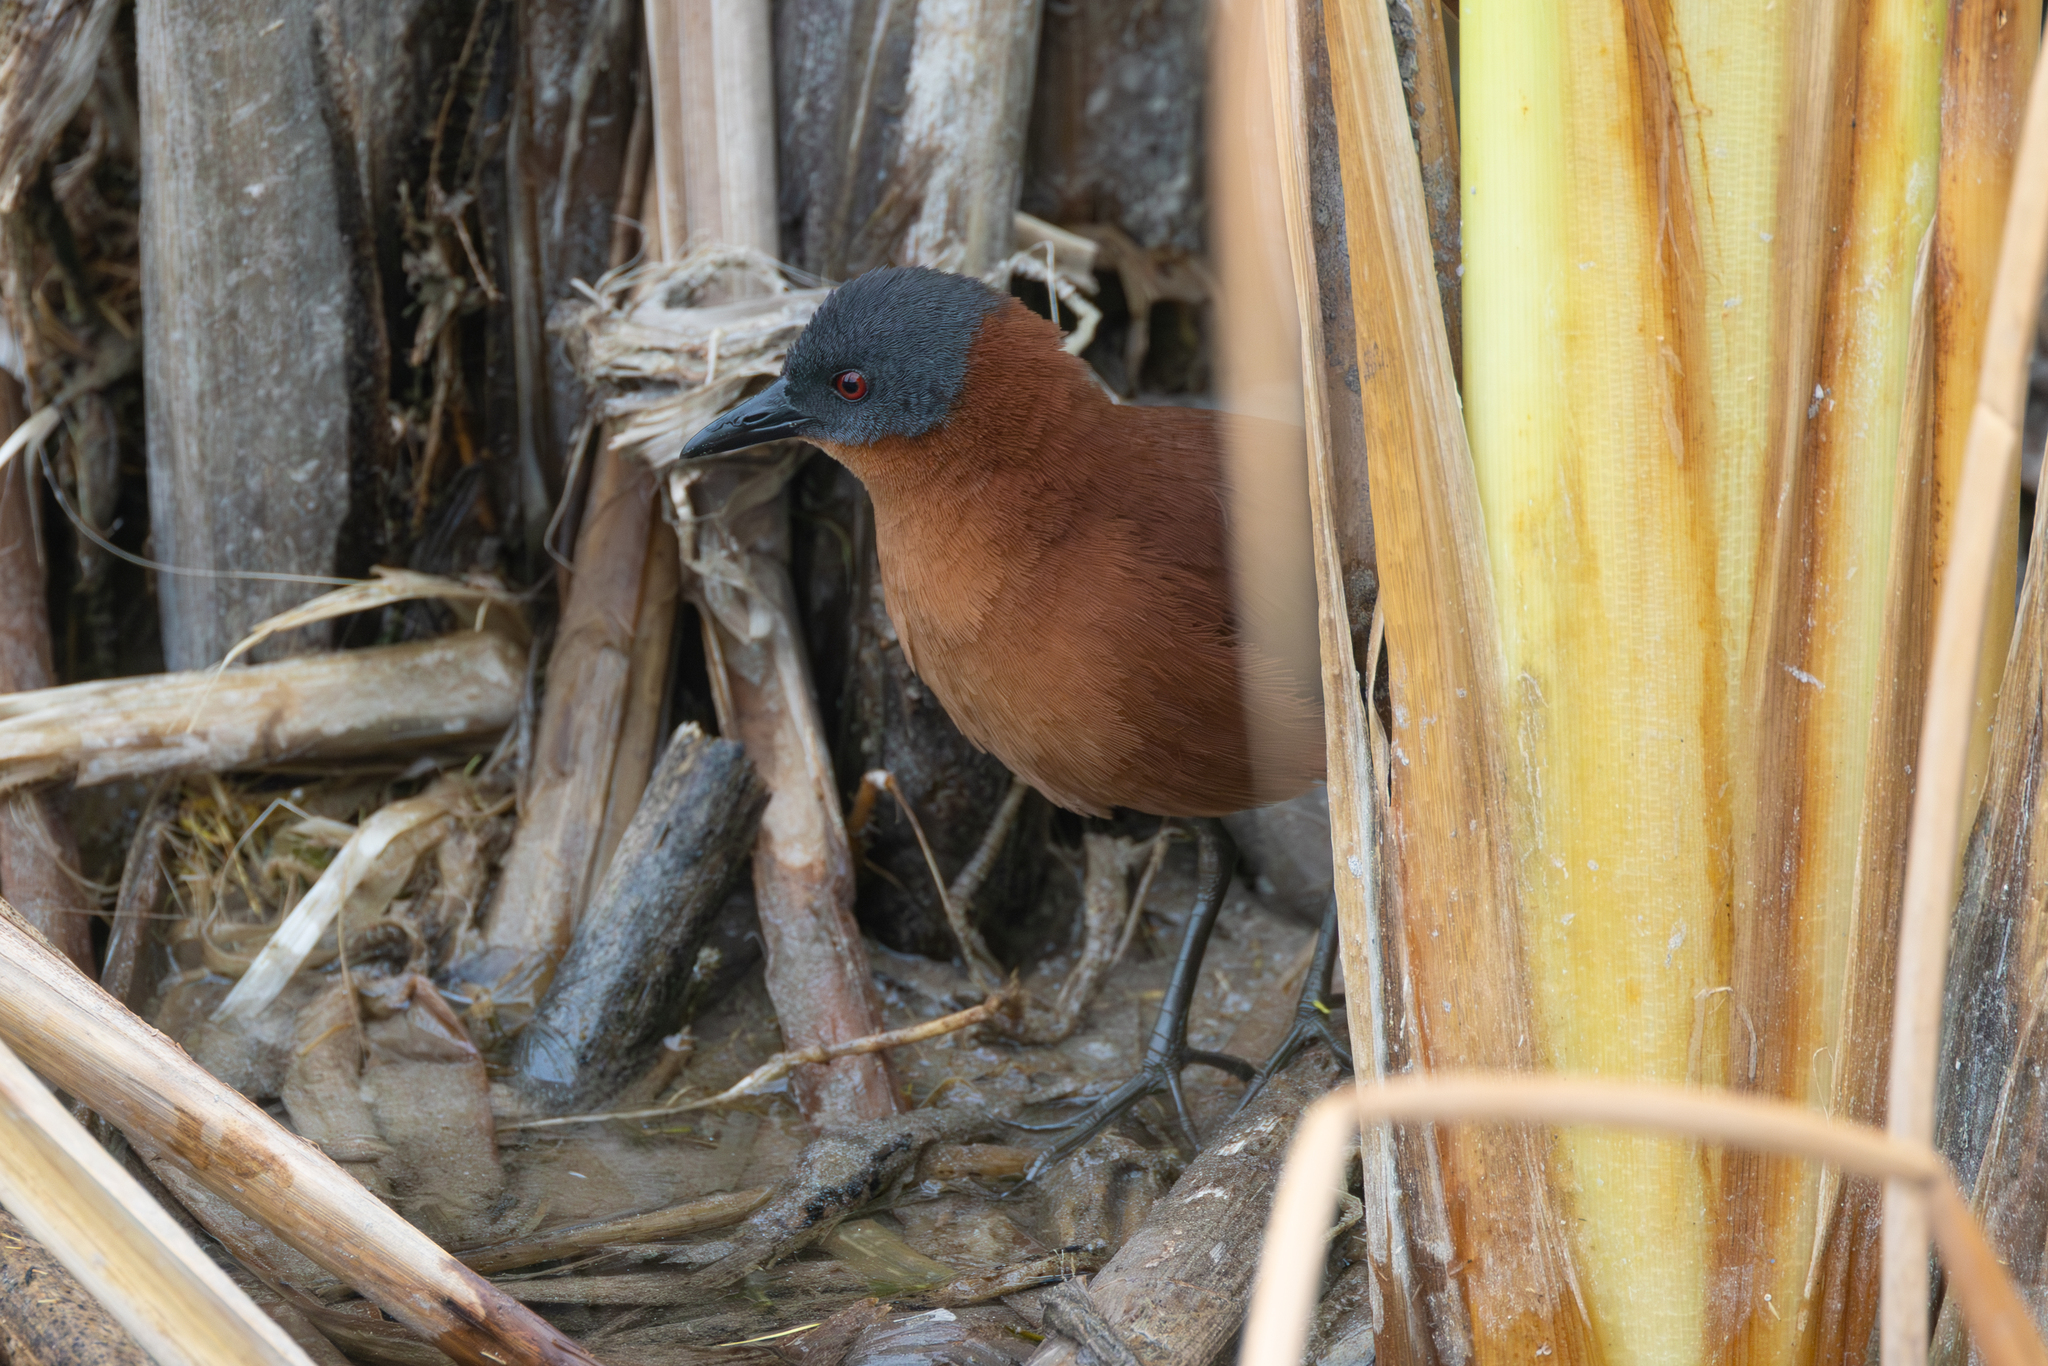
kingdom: Animalia
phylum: Chordata
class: Aves
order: Gruiformes
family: Rallidae
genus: Laterallus
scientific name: Laterallus ruber
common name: Ruddy crake
